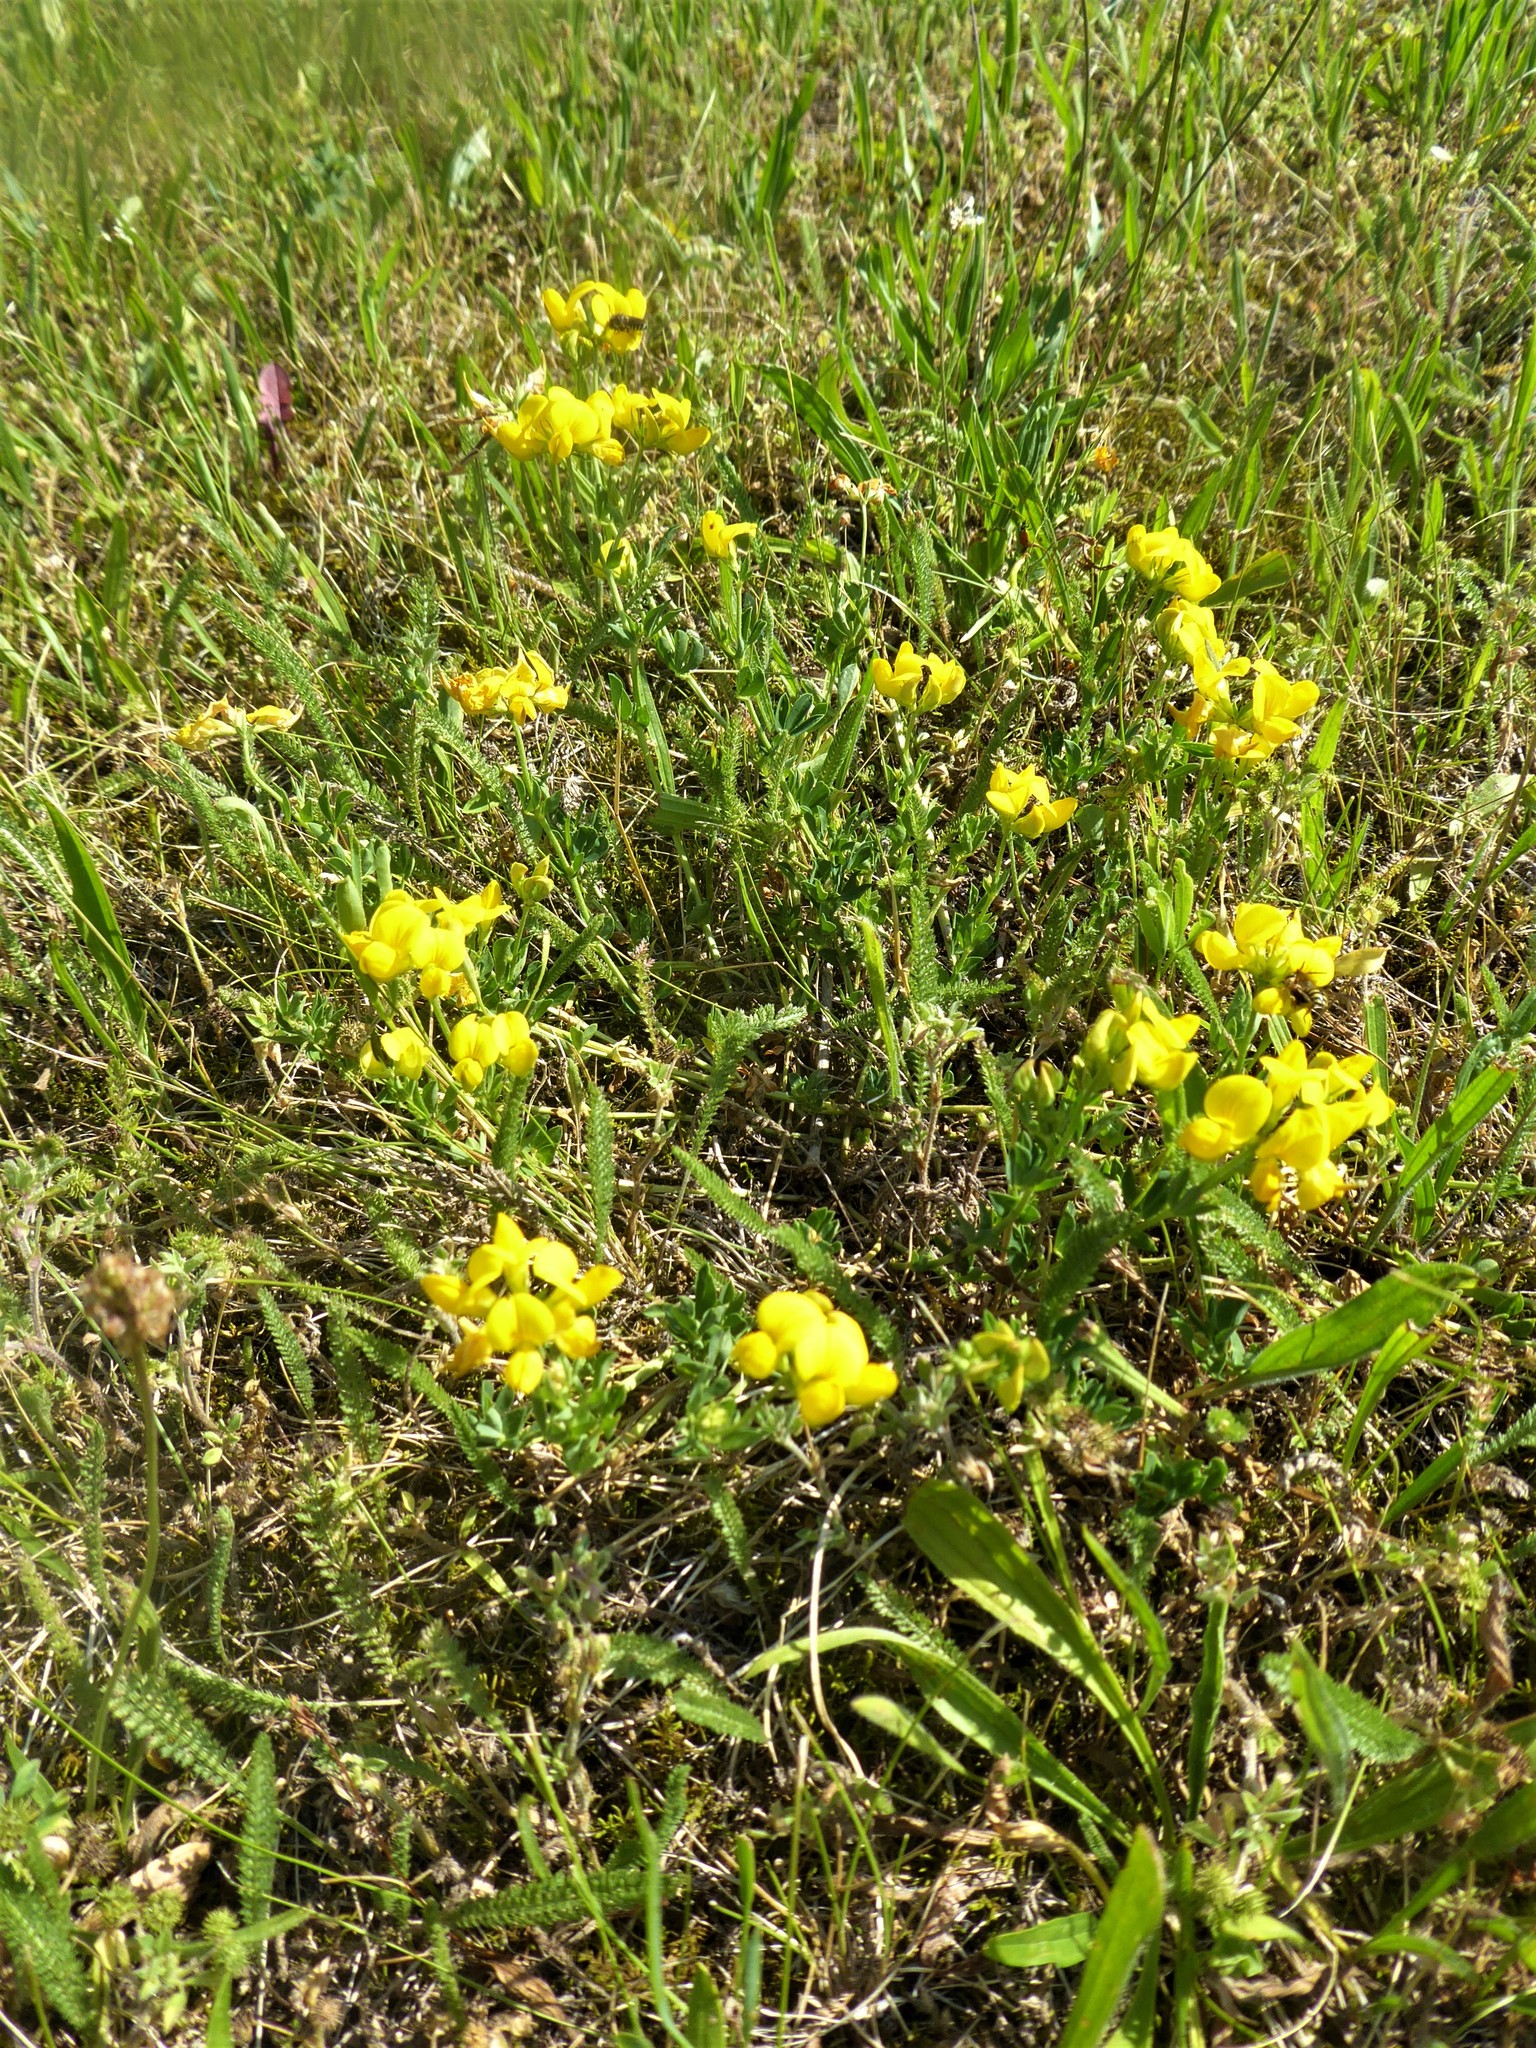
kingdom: Plantae
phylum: Tracheophyta
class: Magnoliopsida
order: Fabales
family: Fabaceae
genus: Lotus
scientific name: Lotus corniculatus
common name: Common bird's-foot-trefoil
